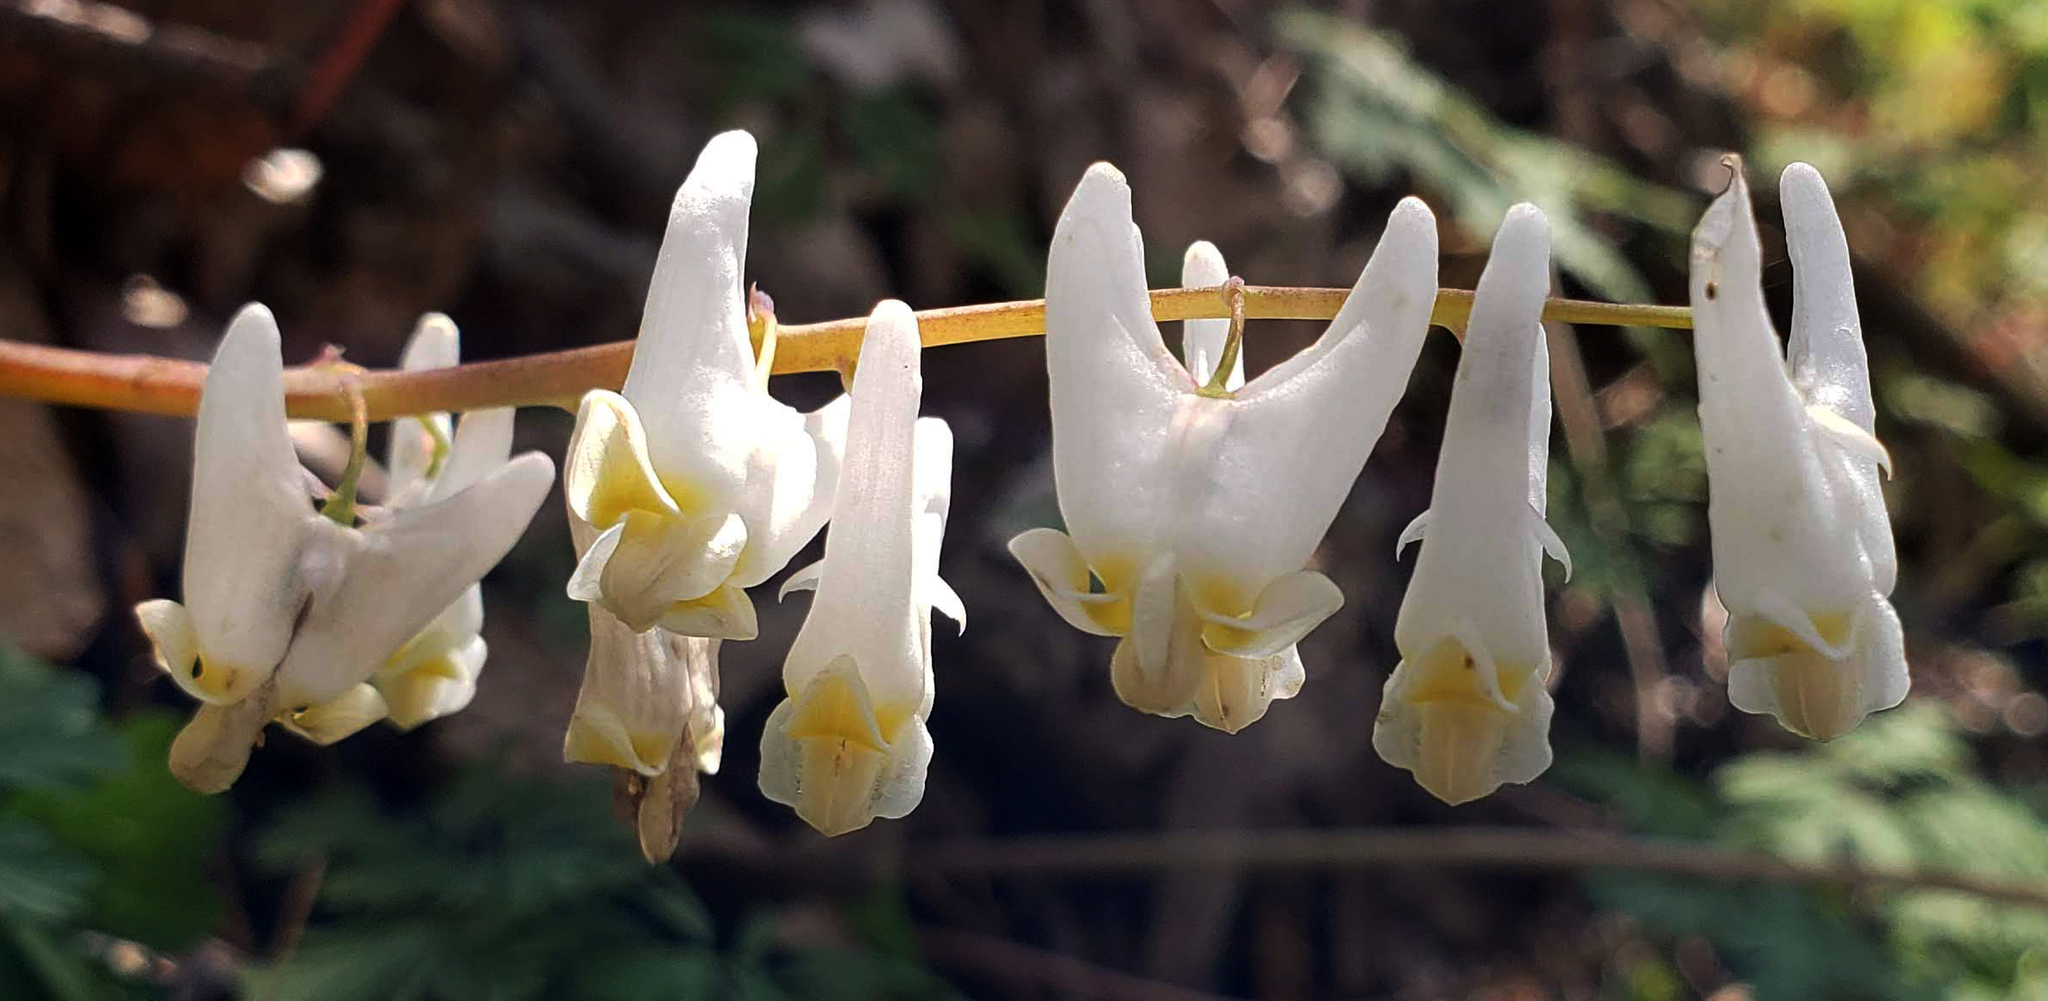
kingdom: Plantae
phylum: Tracheophyta
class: Magnoliopsida
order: Ranunculales
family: Papaveraceae
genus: Dicentra
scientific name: Dicentra cucullaria
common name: Dutchman's breeches
